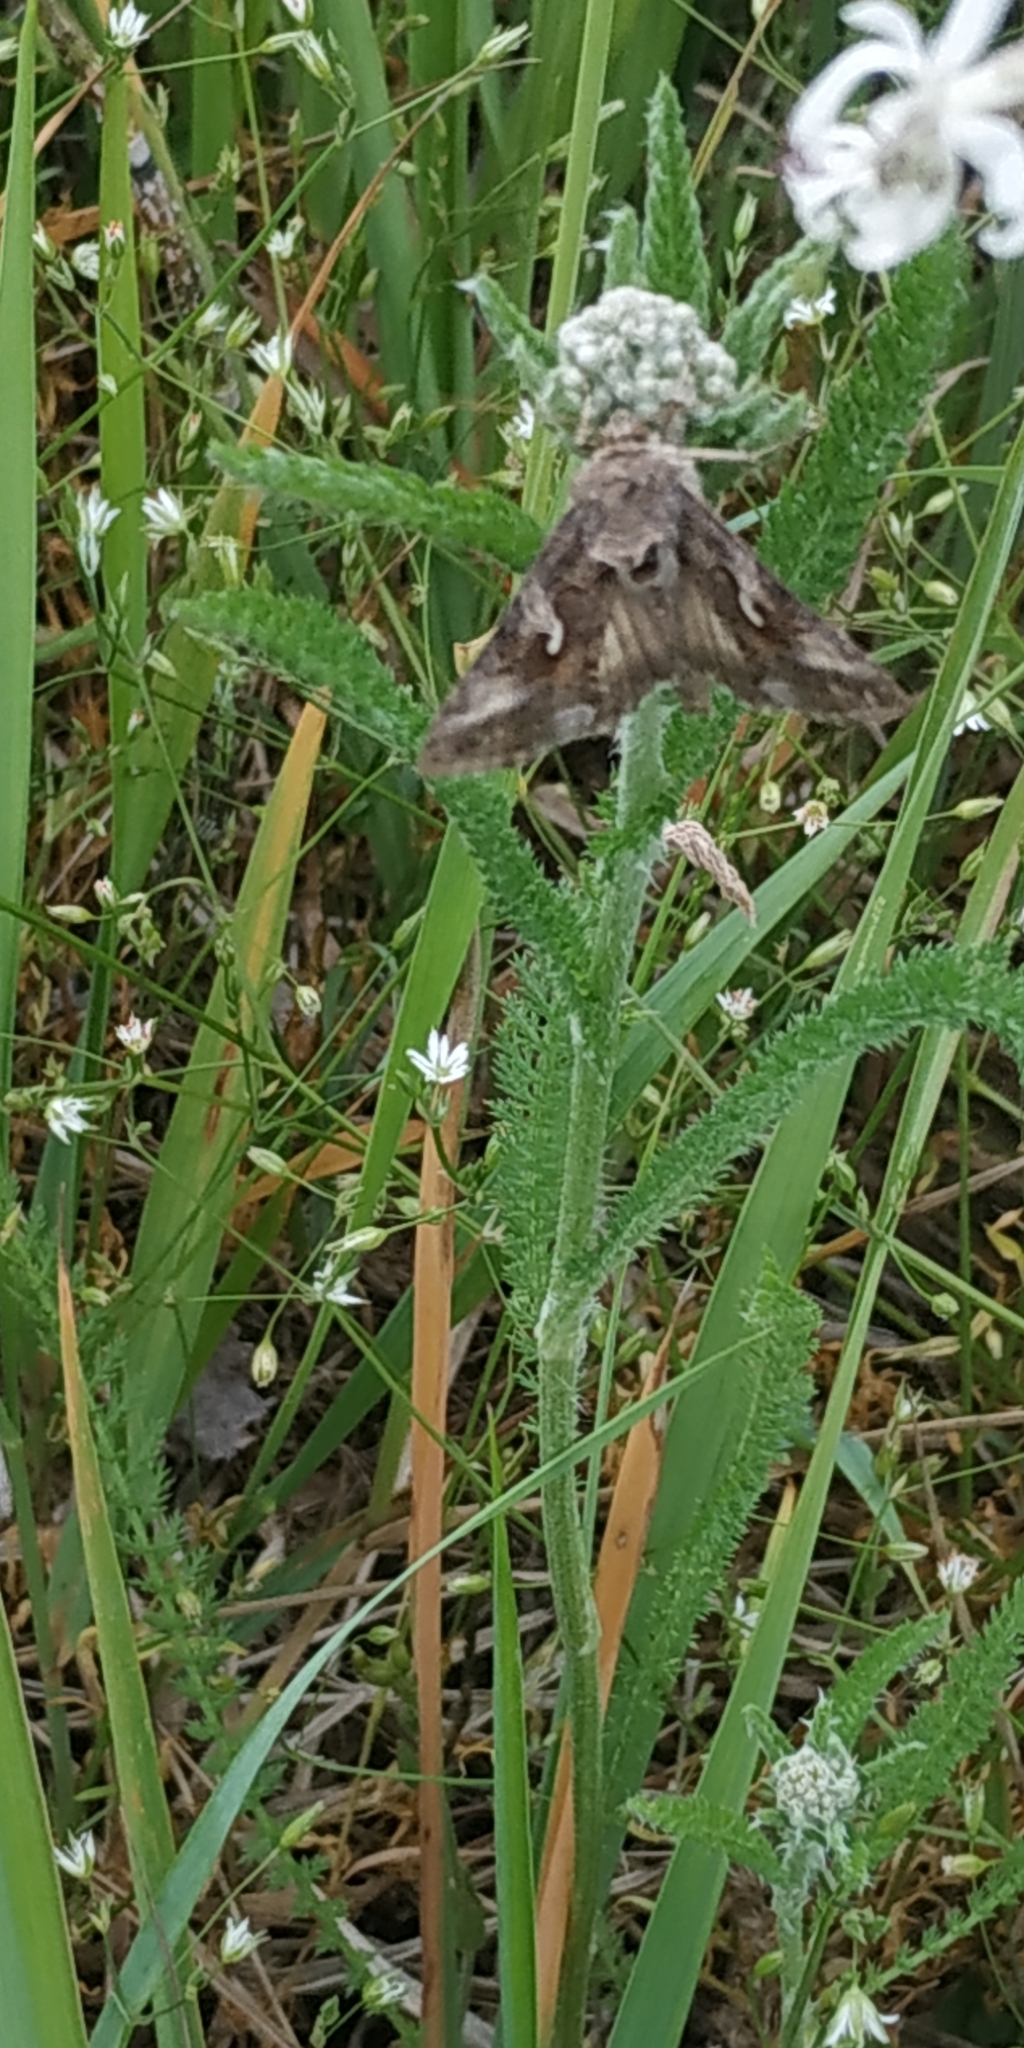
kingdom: Animalia
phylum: Arthropoda
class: Insecta
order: Lepidoptera
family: Noctuidae
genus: Autographa
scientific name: Autographa gamma
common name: Silver y
